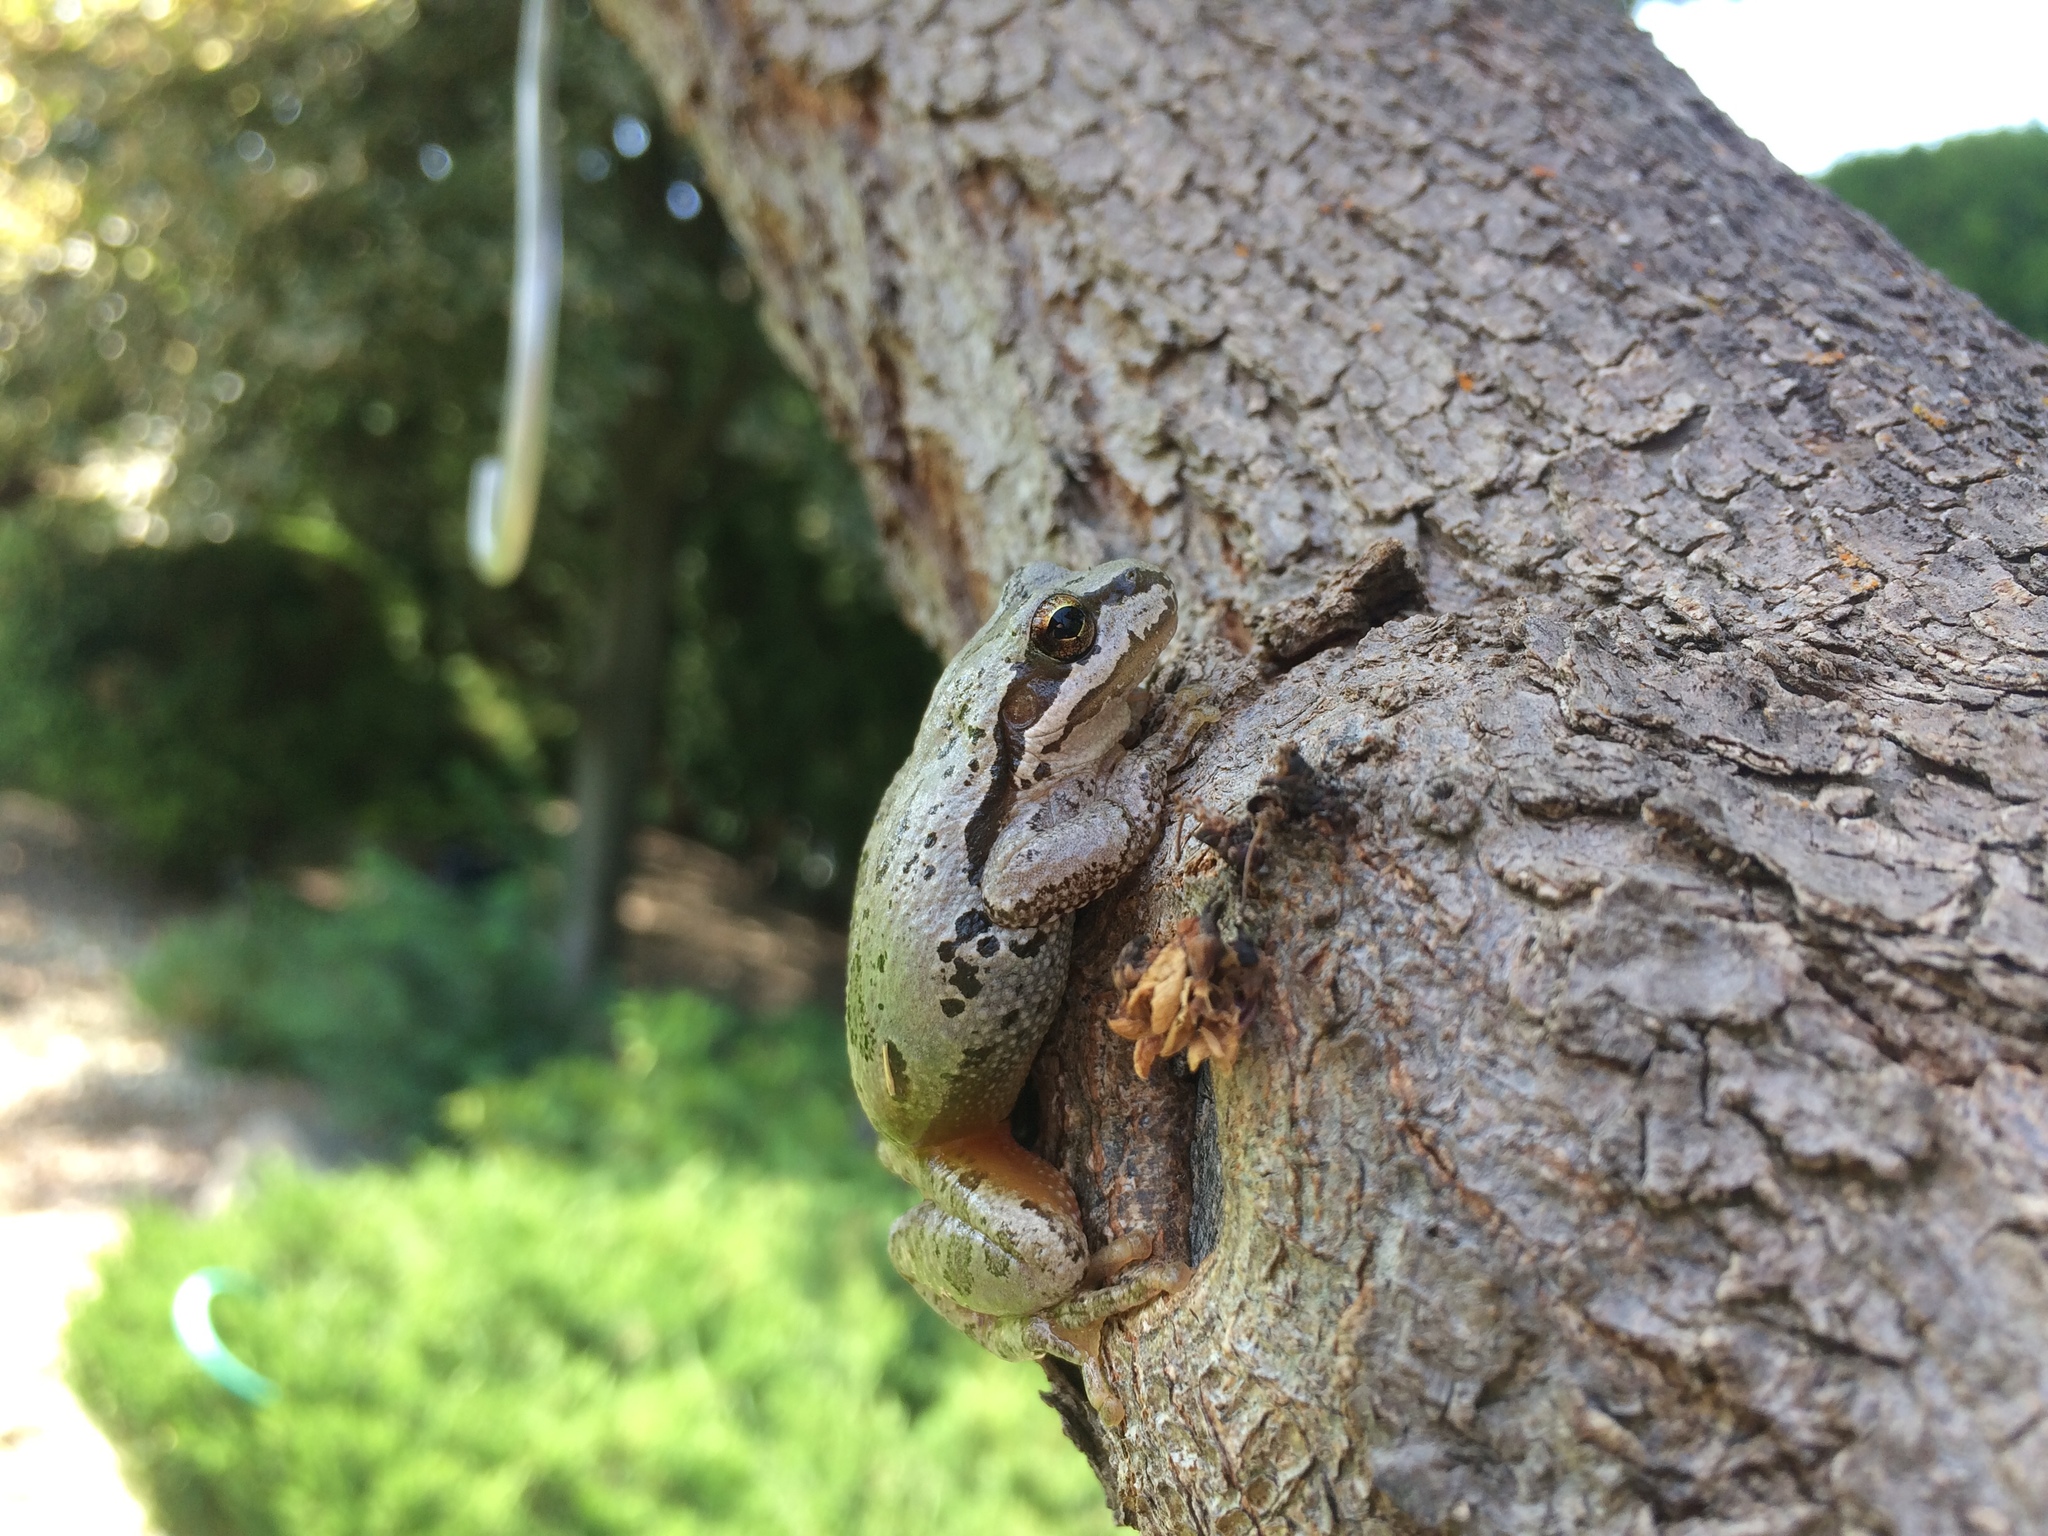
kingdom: Animalia
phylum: Chordata
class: Amphibia
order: Anura
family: Hylidae
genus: Pseudacris
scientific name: Pseudacris regilla
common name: Pacific chorus frog
